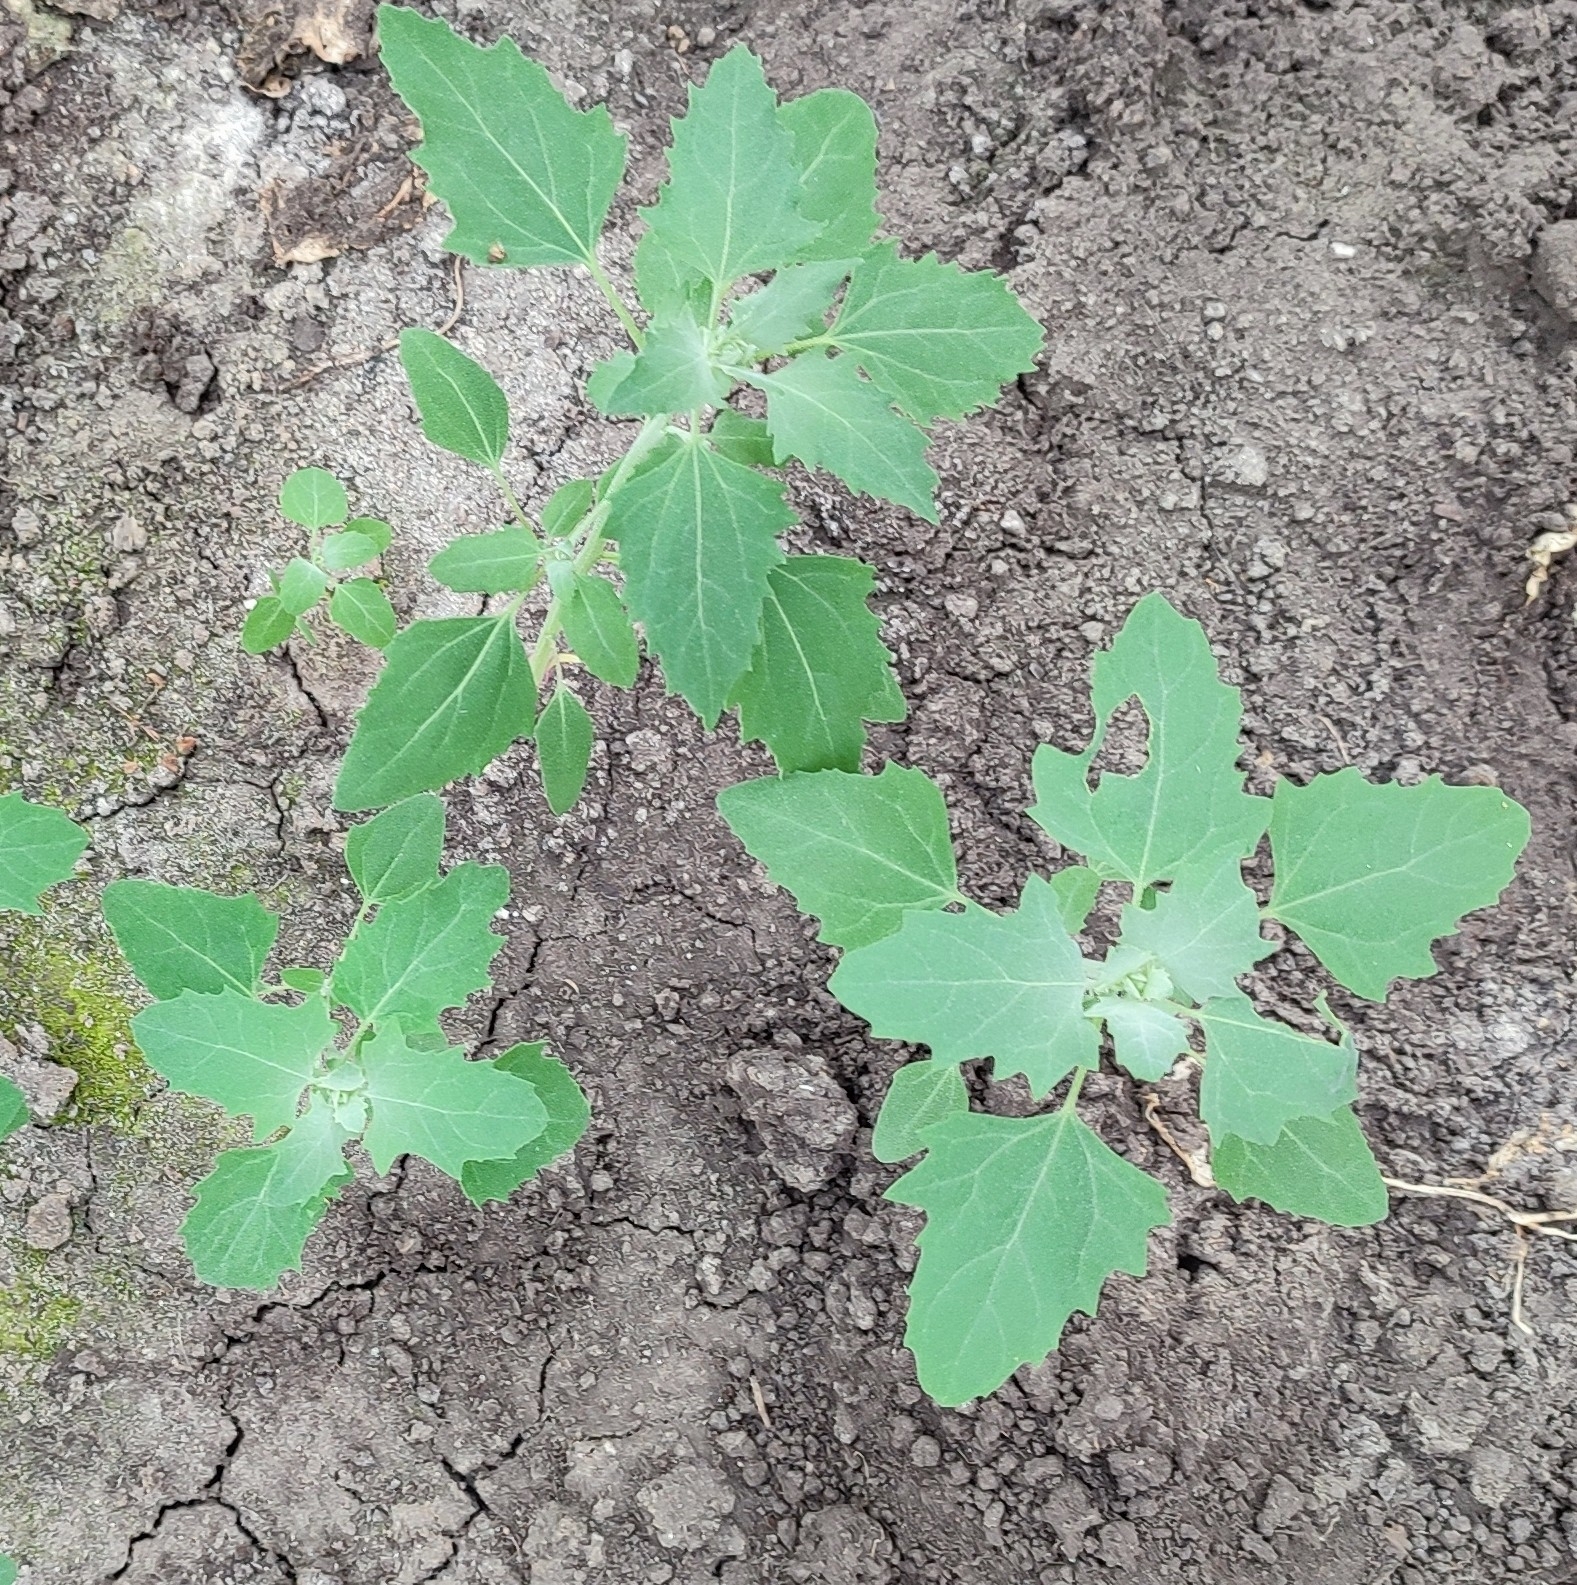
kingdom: Plantae
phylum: Tracheophyta
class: Magnoliopsida
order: Caryophyllales
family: Amaranthaceae
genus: Chenopodium
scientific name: Chenopodium album
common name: Fat-hen
